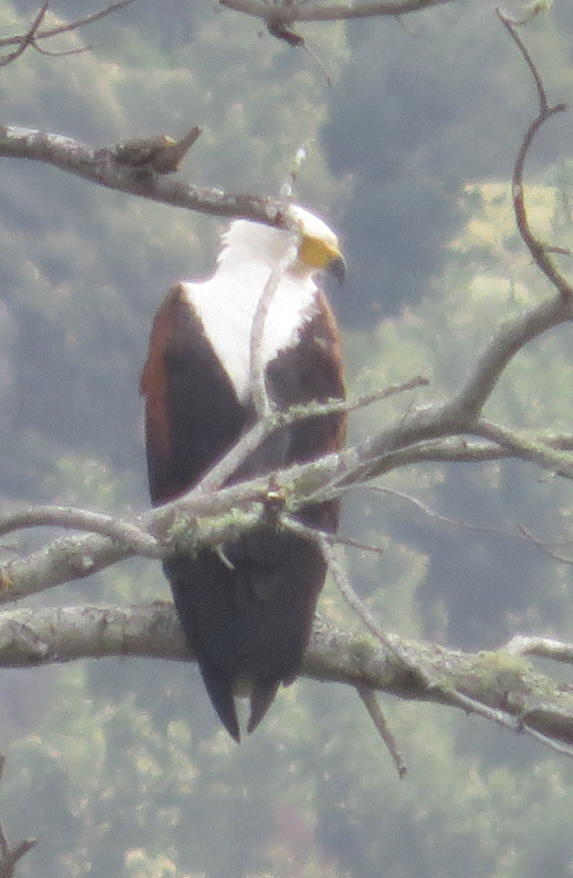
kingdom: Animalia
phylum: Chordata
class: Aves
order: Accipitriformes
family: Accipitridae
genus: Haliaeetus
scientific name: Haliaeetus vocifer
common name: African fish eagle
